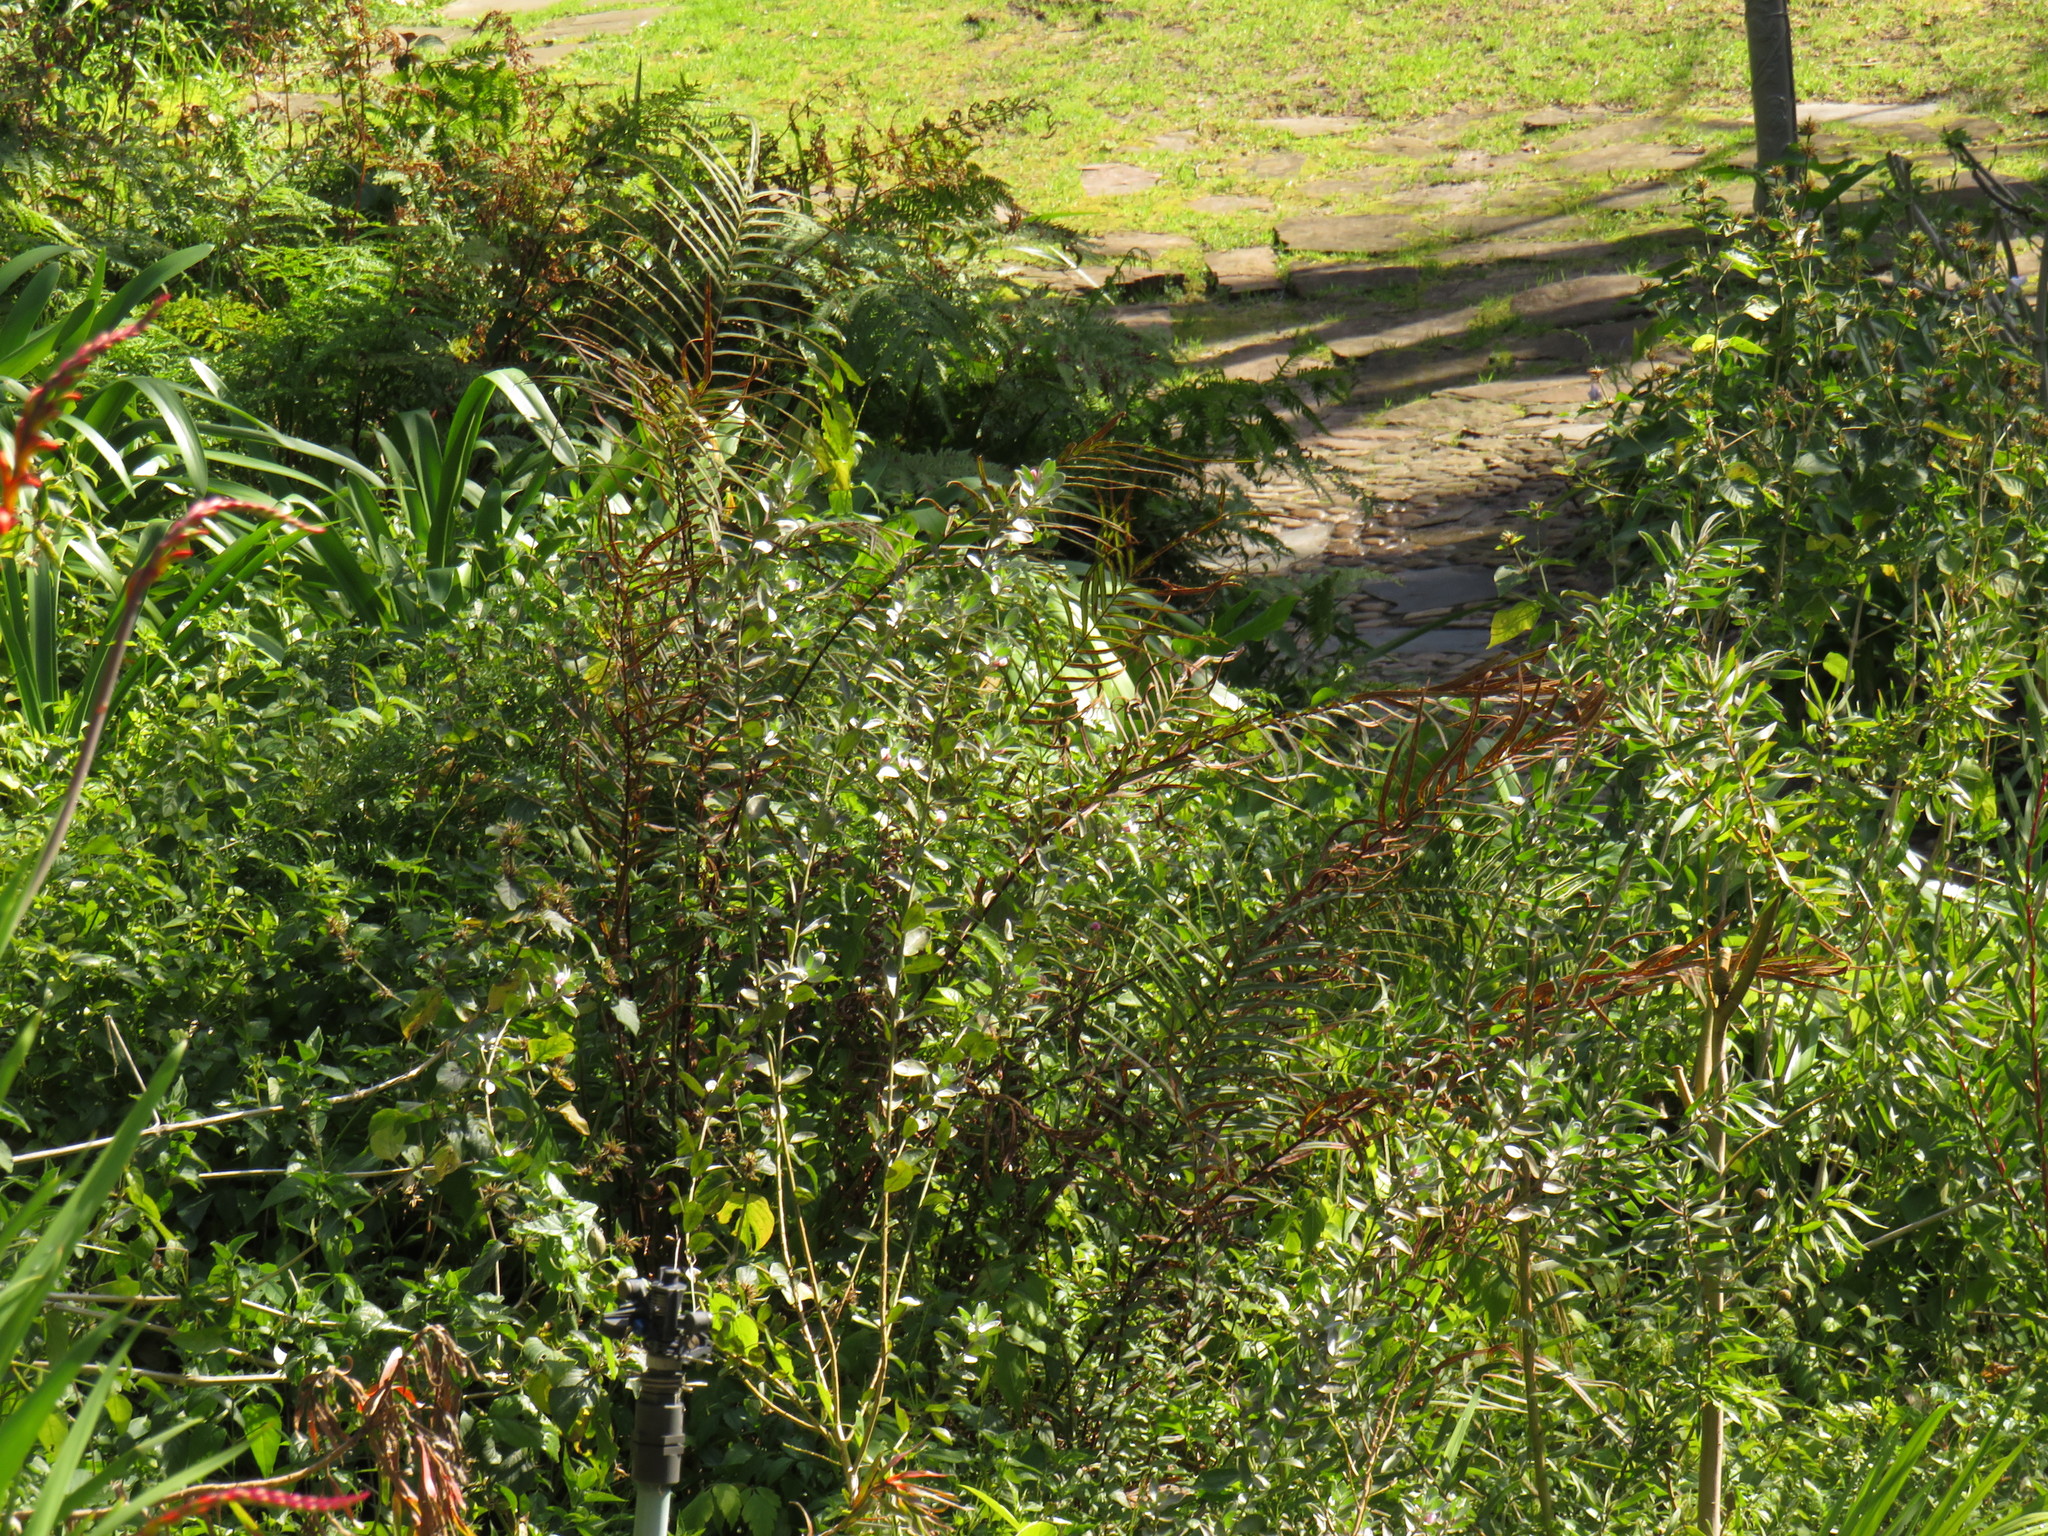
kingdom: Plantae
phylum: Tracheophyta
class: Polypodiopsida
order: Polypodiales
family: Pteridaceae
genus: Pteris
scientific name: Pteris vittata
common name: Ladder brake
